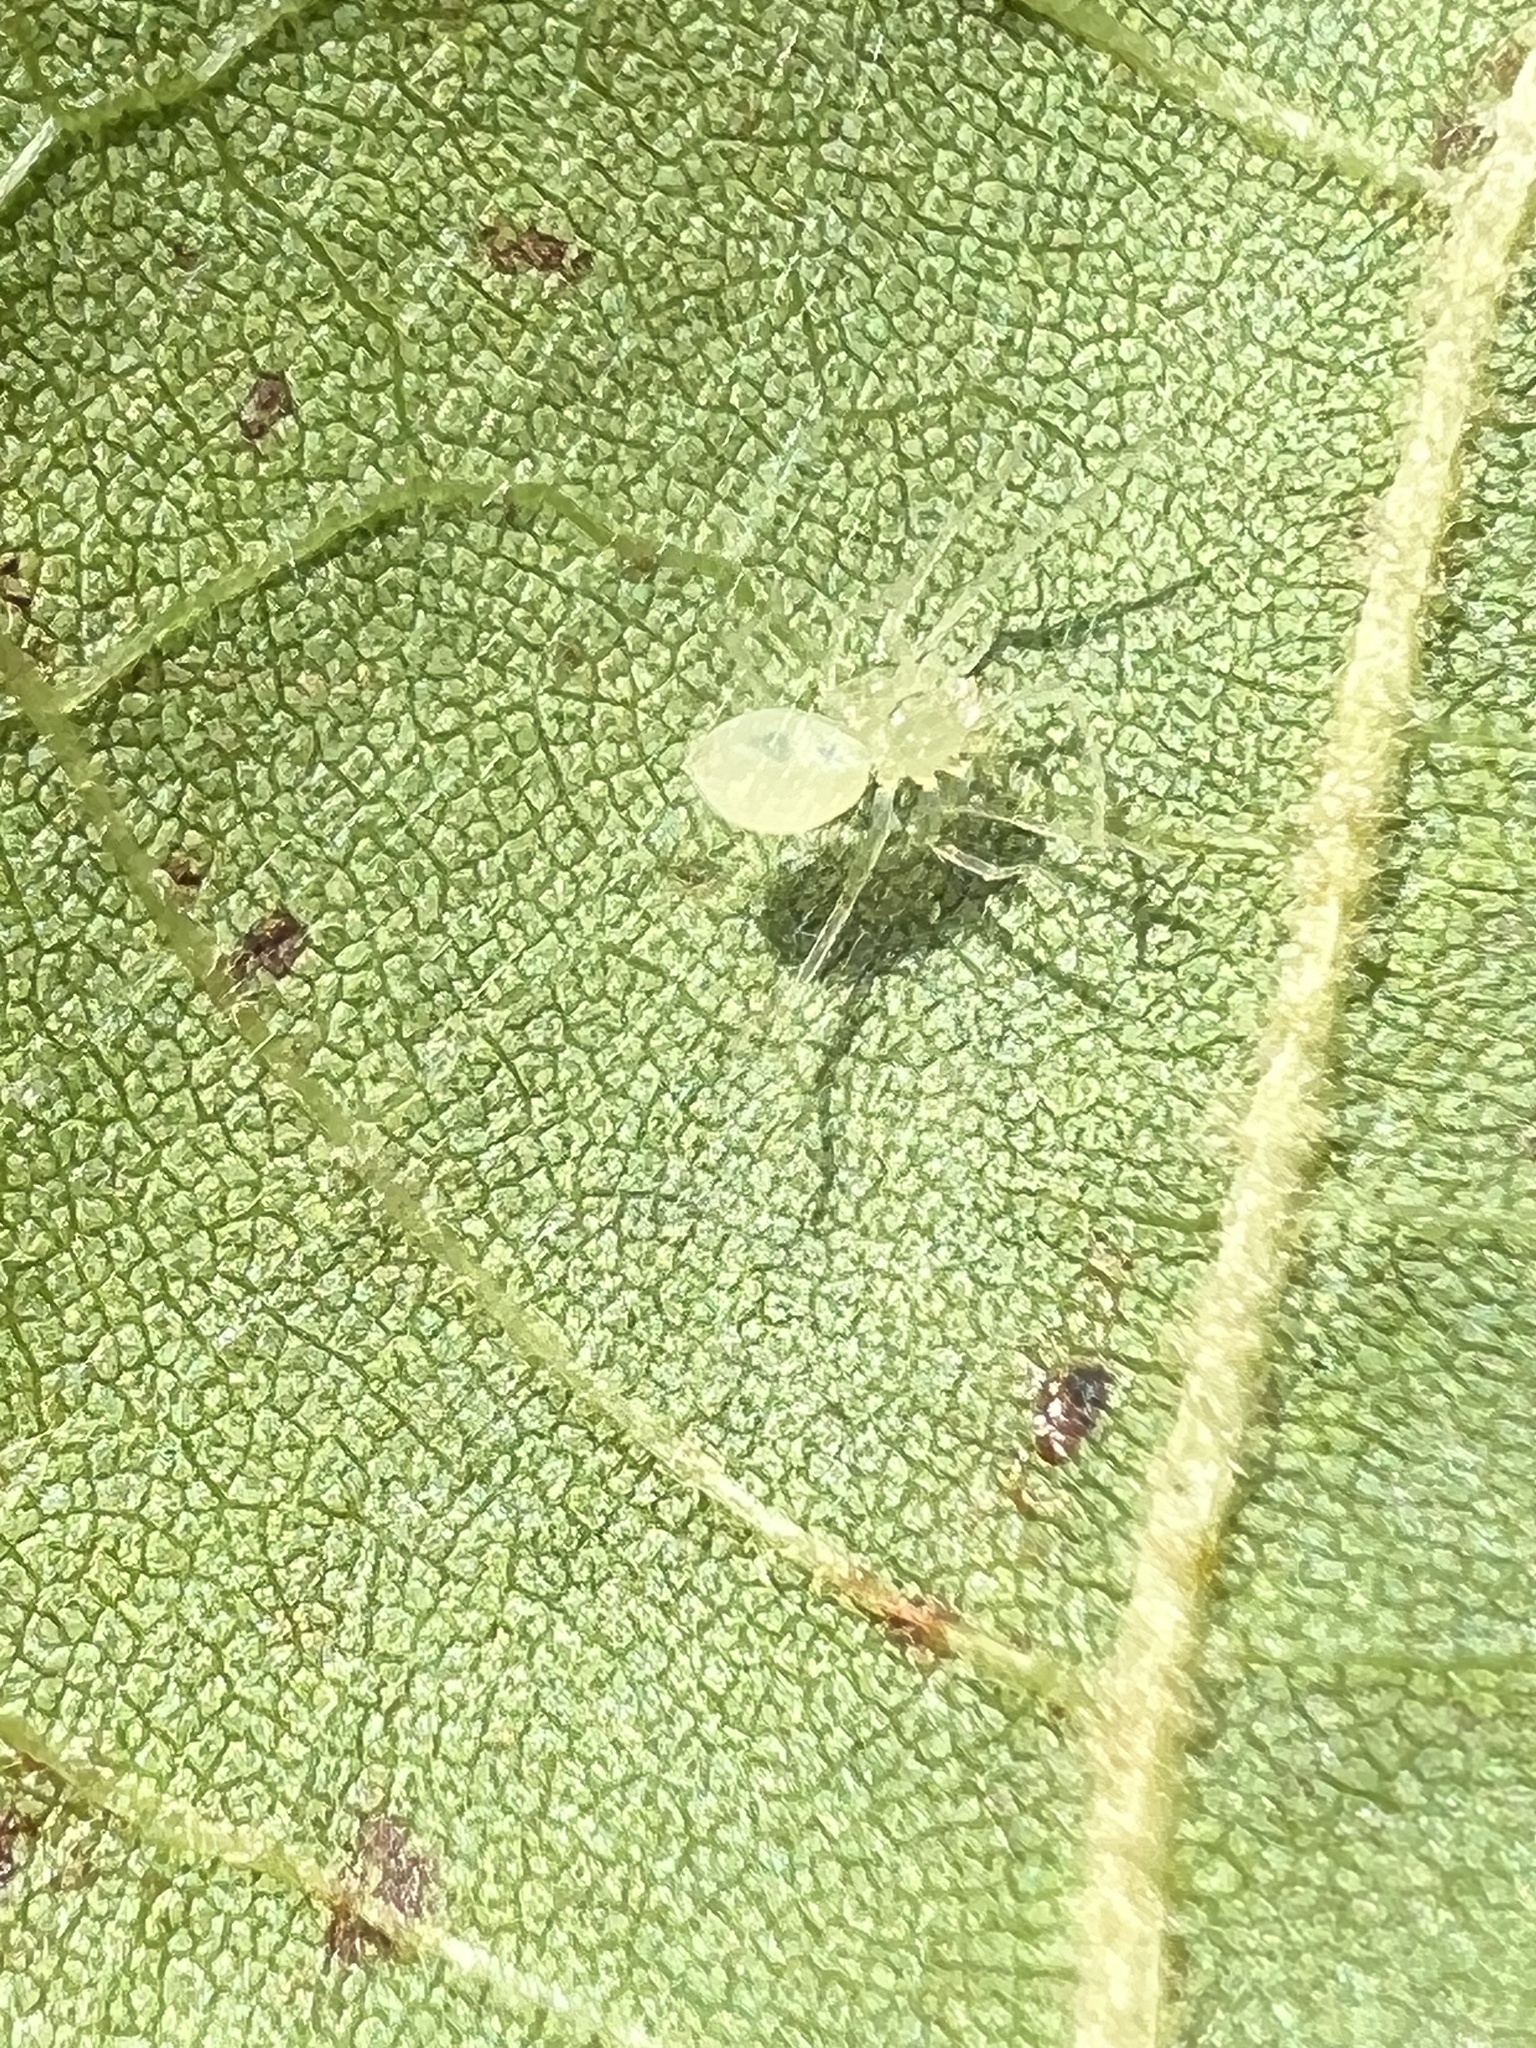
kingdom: Animalia
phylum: Arthropoda
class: Arachnida
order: Araneae
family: Anyphaenidae
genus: Wulfila
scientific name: Wulfila albens
